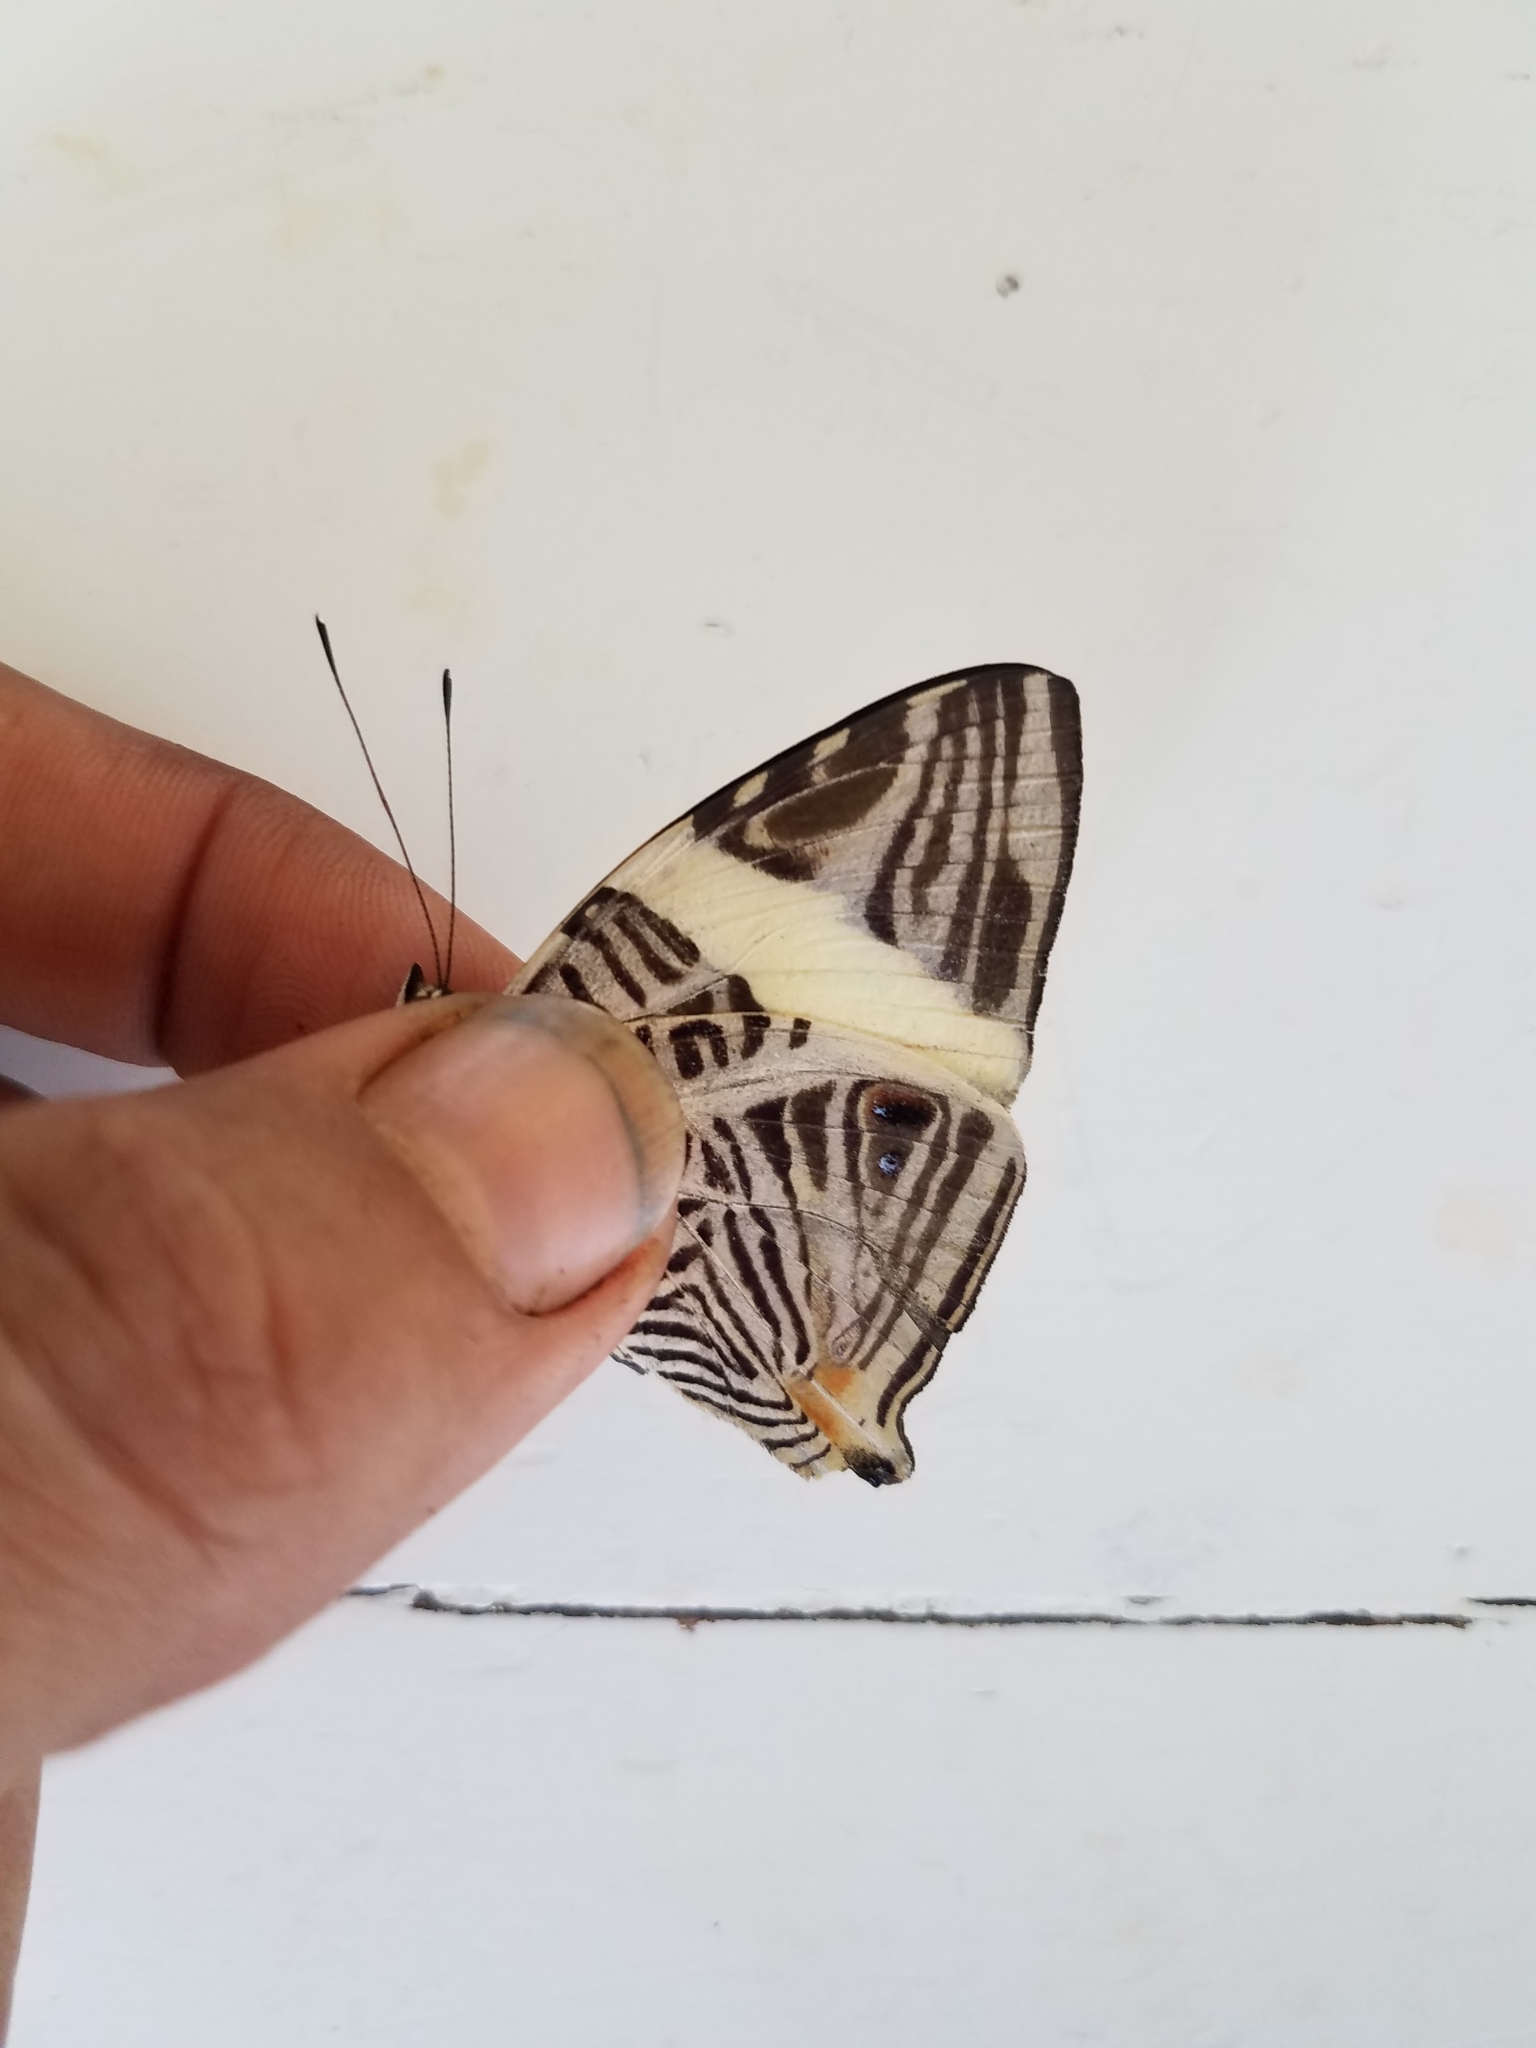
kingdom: Animalia
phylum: Arthropoda
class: Insecta
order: Lepidoptera
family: Nymphalidae
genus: Colobura
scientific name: Colobura dirce
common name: Dirce beauty
